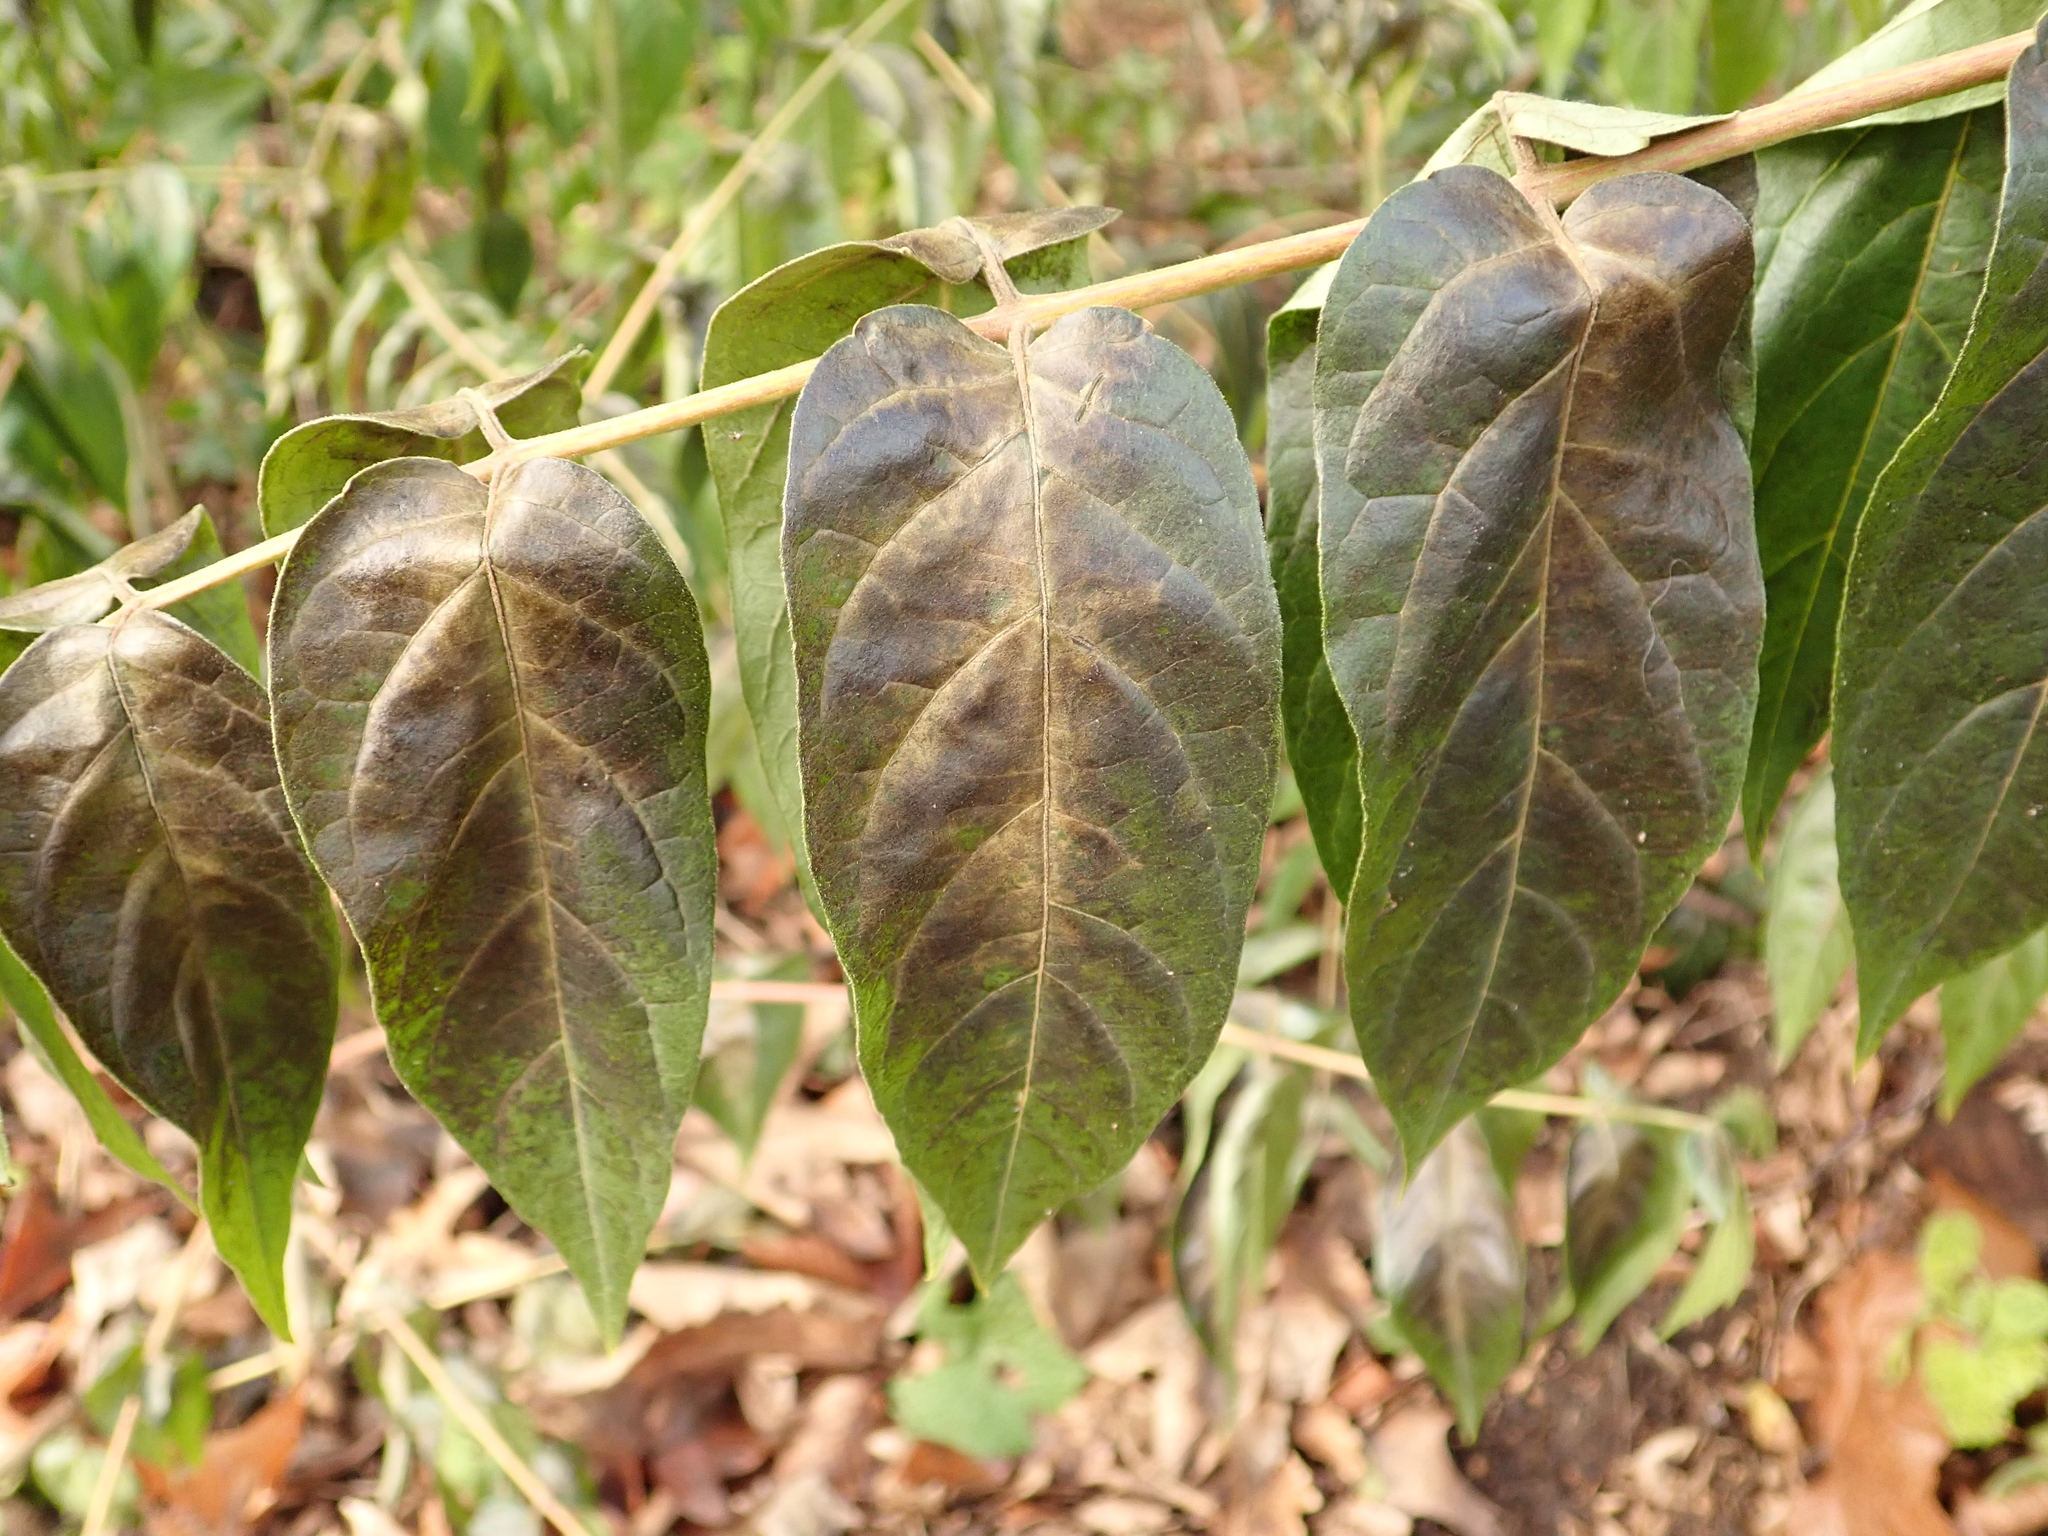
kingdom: Plantae
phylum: Tracheophyta
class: Magnoliopsida
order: Sapindales
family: Simaroubaceae
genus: Ailanthus
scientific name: Ailanthus altissima
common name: Tree-of-heaven
